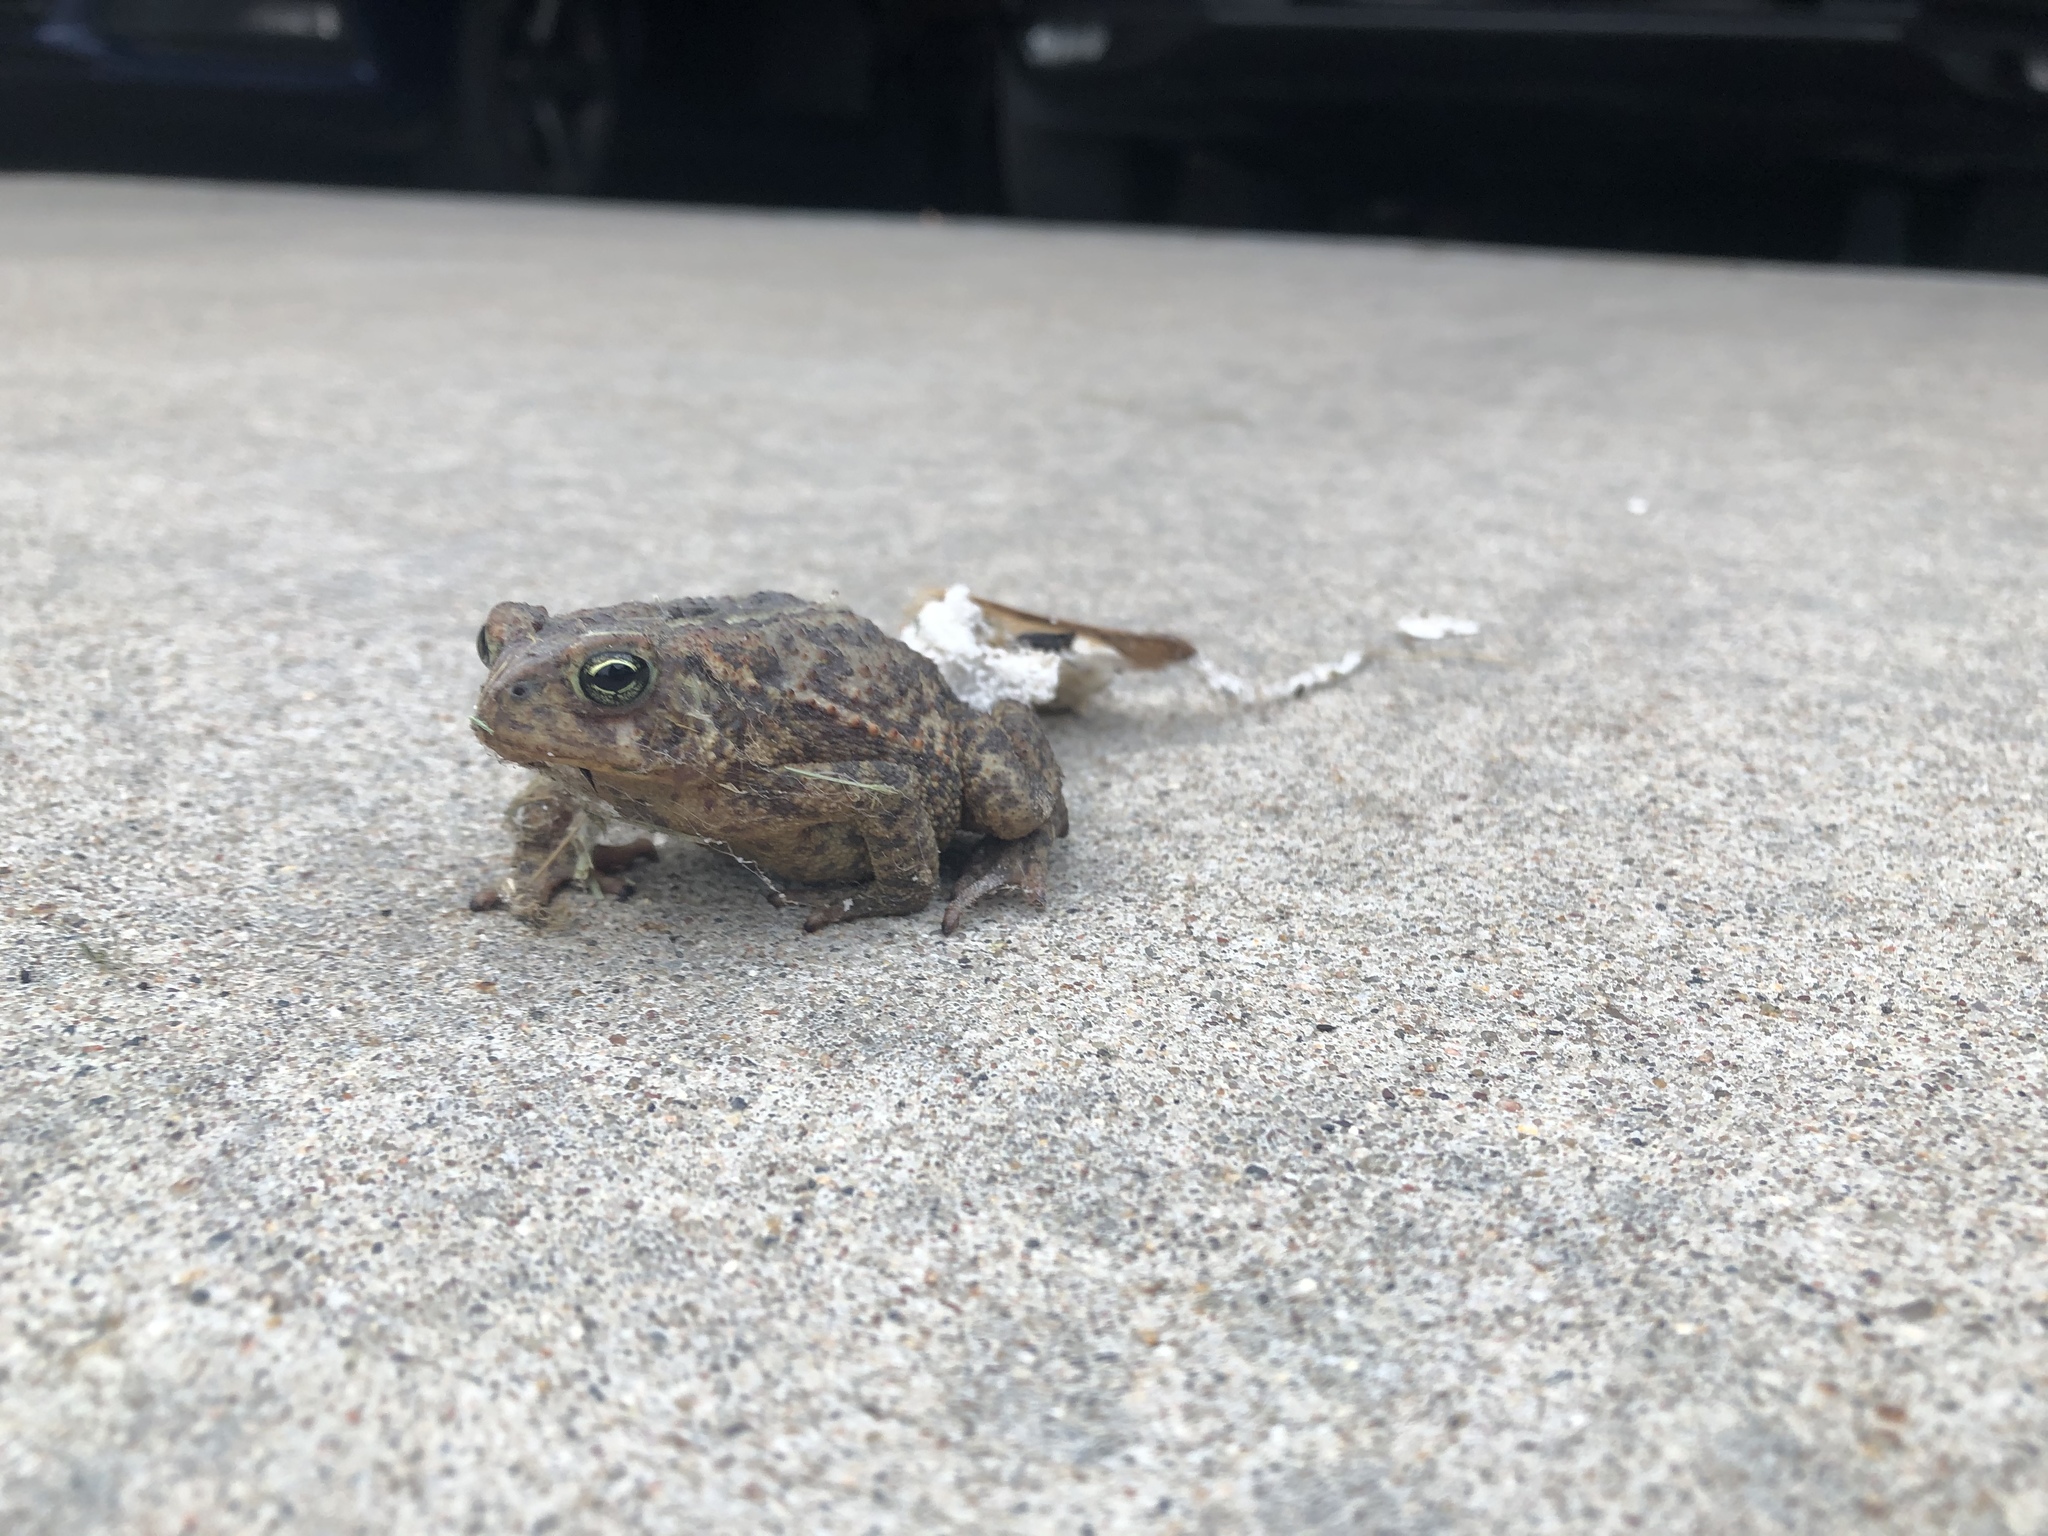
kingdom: Animalia
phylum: Chordata
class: Amphibia
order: Anura
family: Bufonidae
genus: Anaxyrus
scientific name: Anaxyrus americanus
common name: American toad
